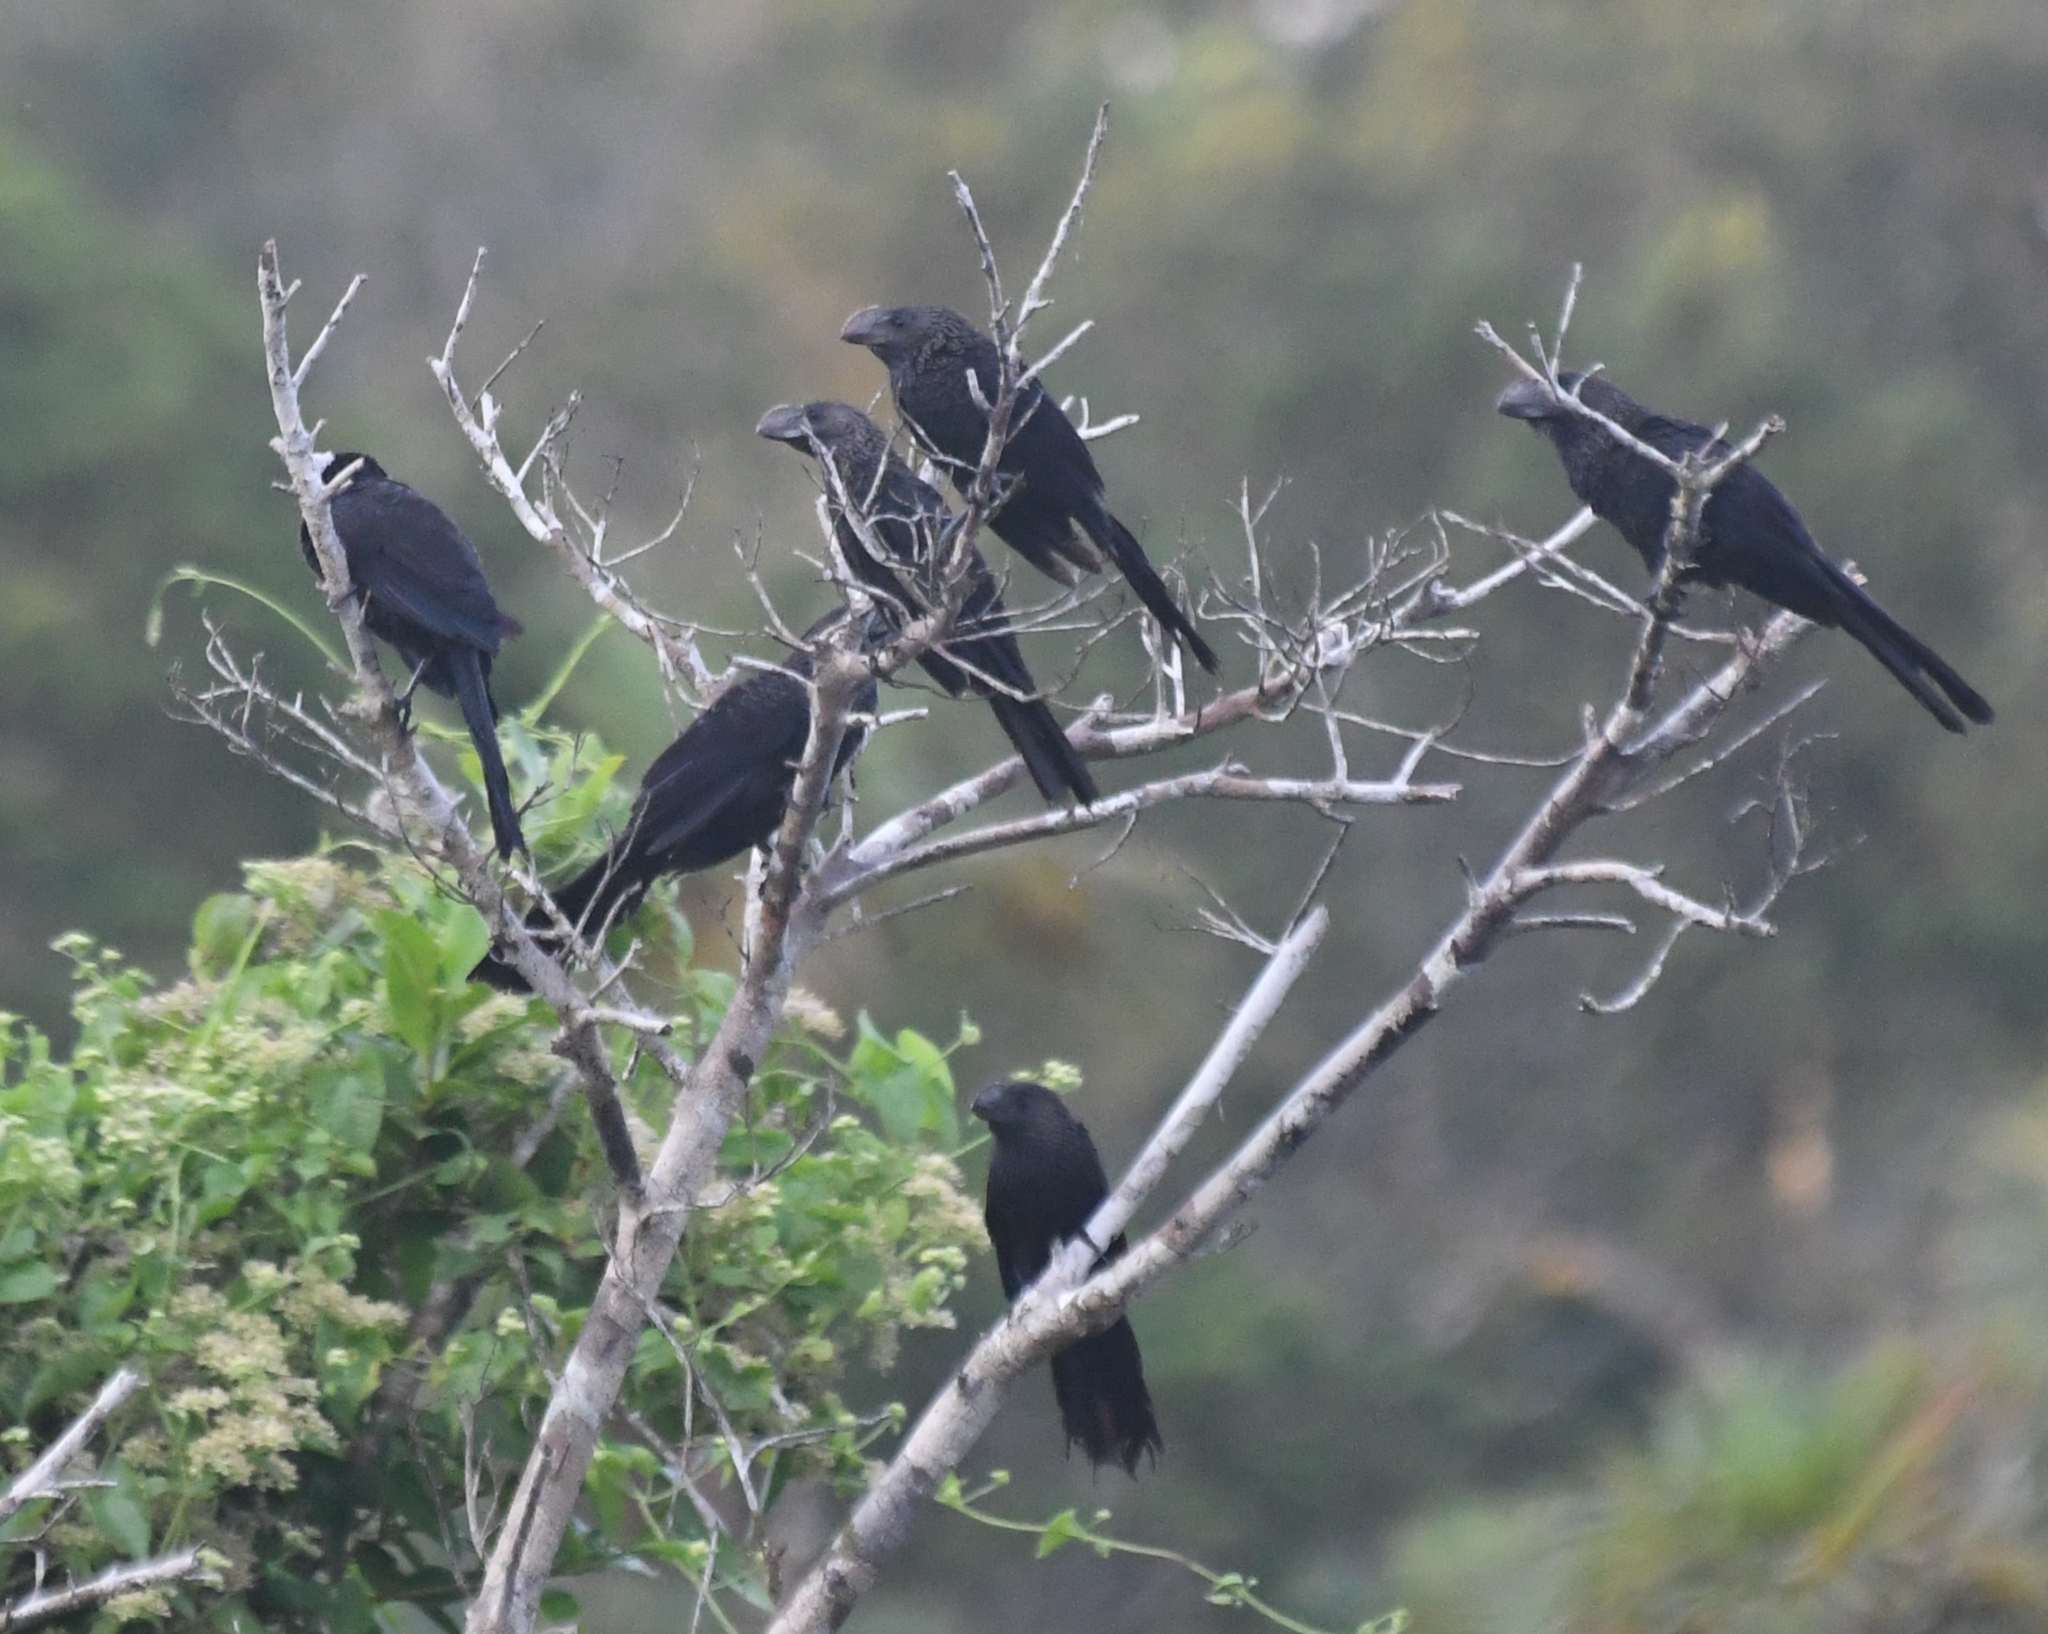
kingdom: Animalia
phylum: Chordata
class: Aves
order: Cuculiformes
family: Cuculidae
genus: Crotophaga
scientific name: Crotophaga ani
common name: Smooth-billed ani
